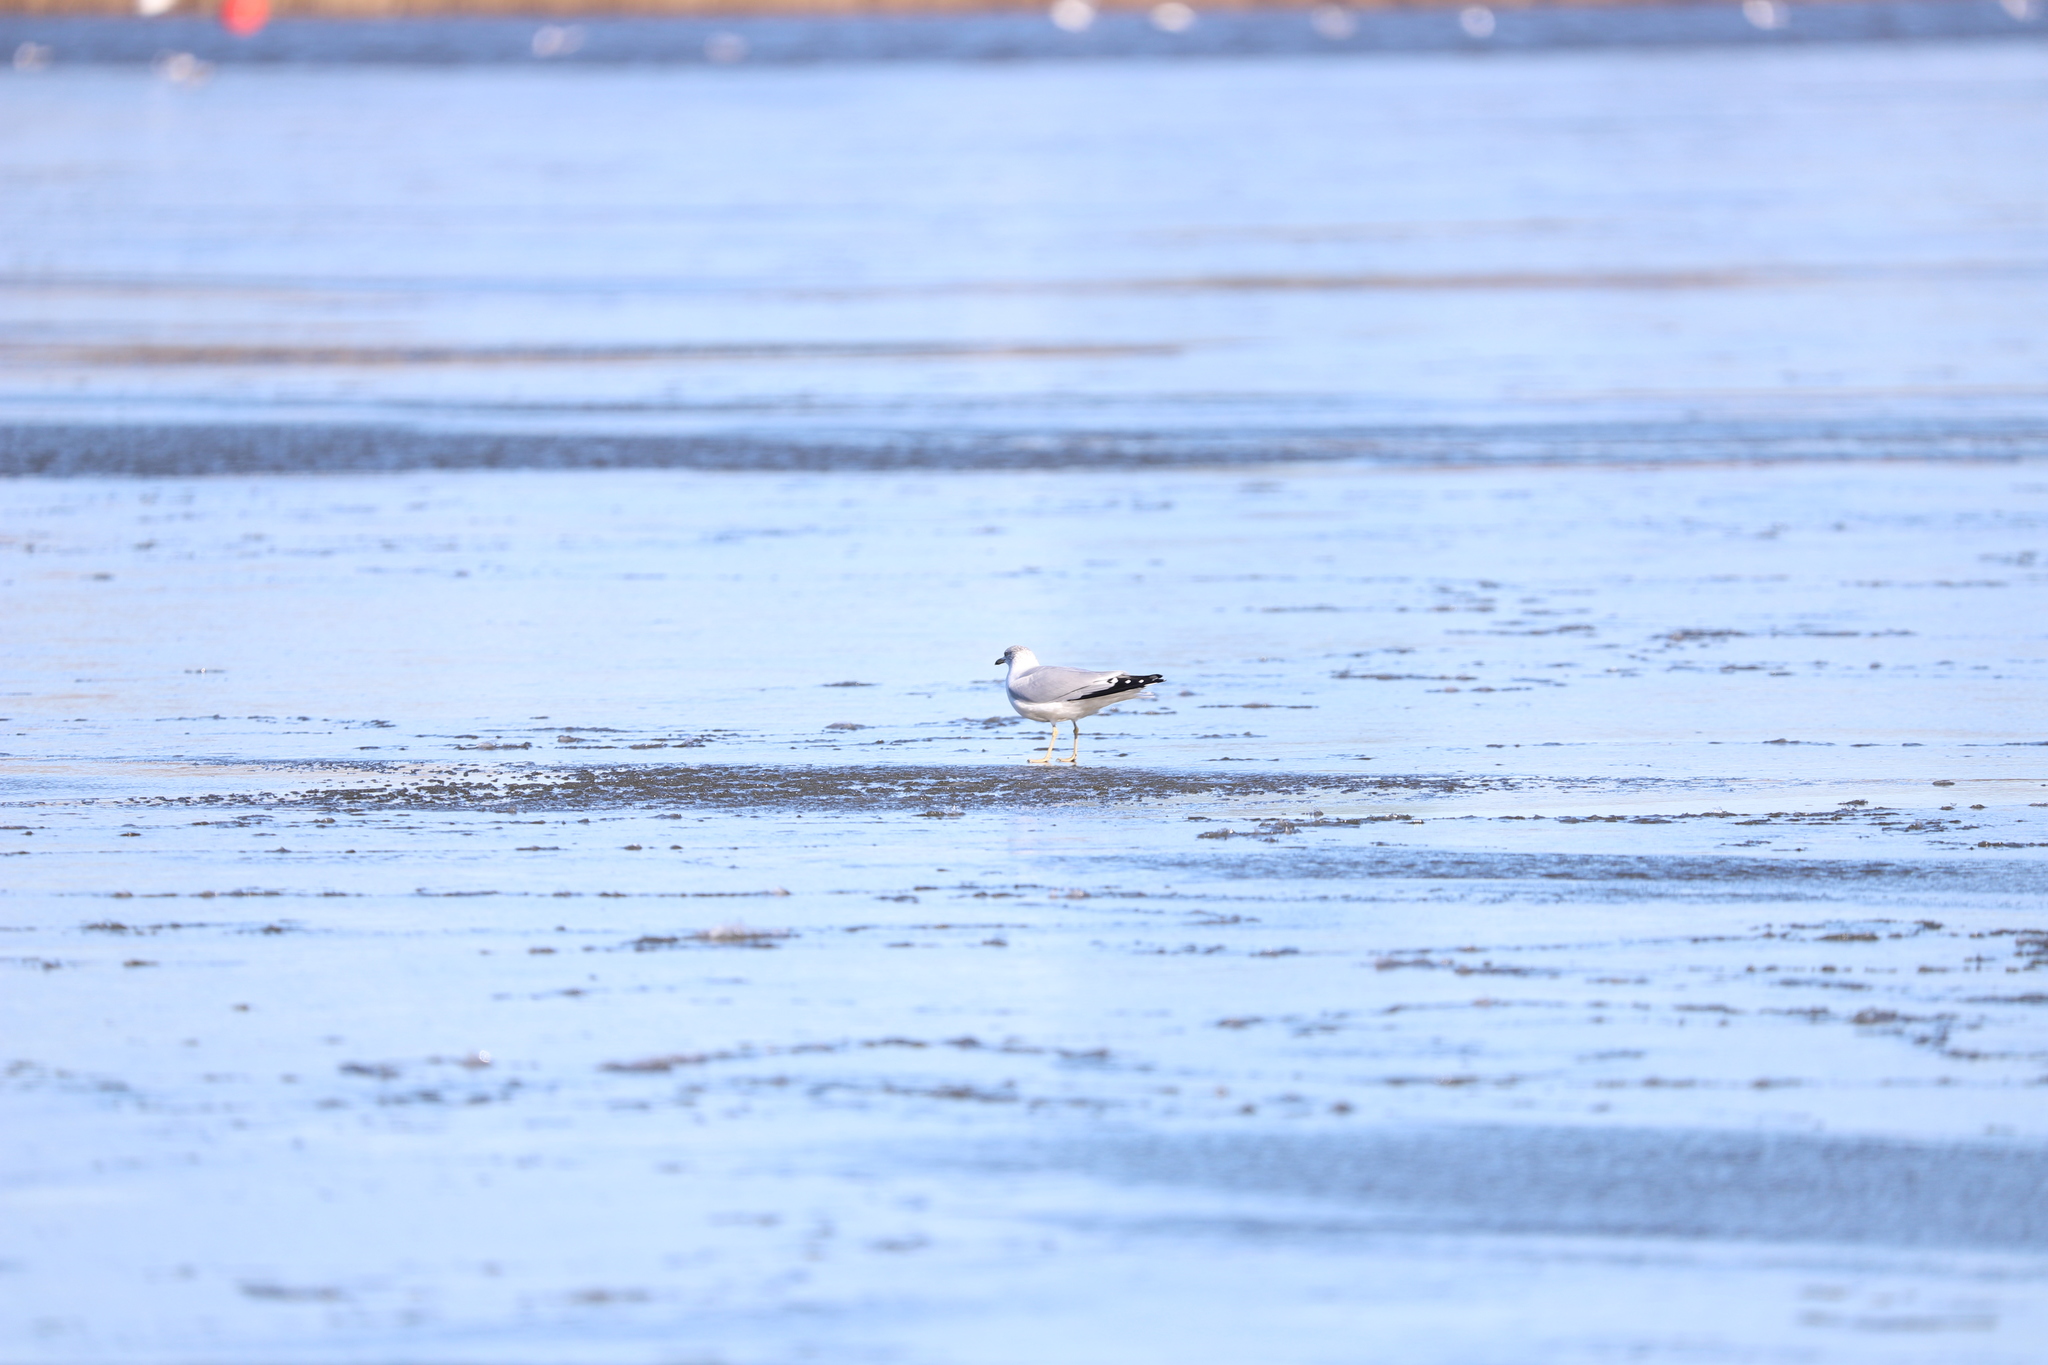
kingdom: Animalia
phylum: Chordata
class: Aves
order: Charadriiformes
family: Laridae
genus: Larus
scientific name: Larus delawarensis
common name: Ring-billed gull
